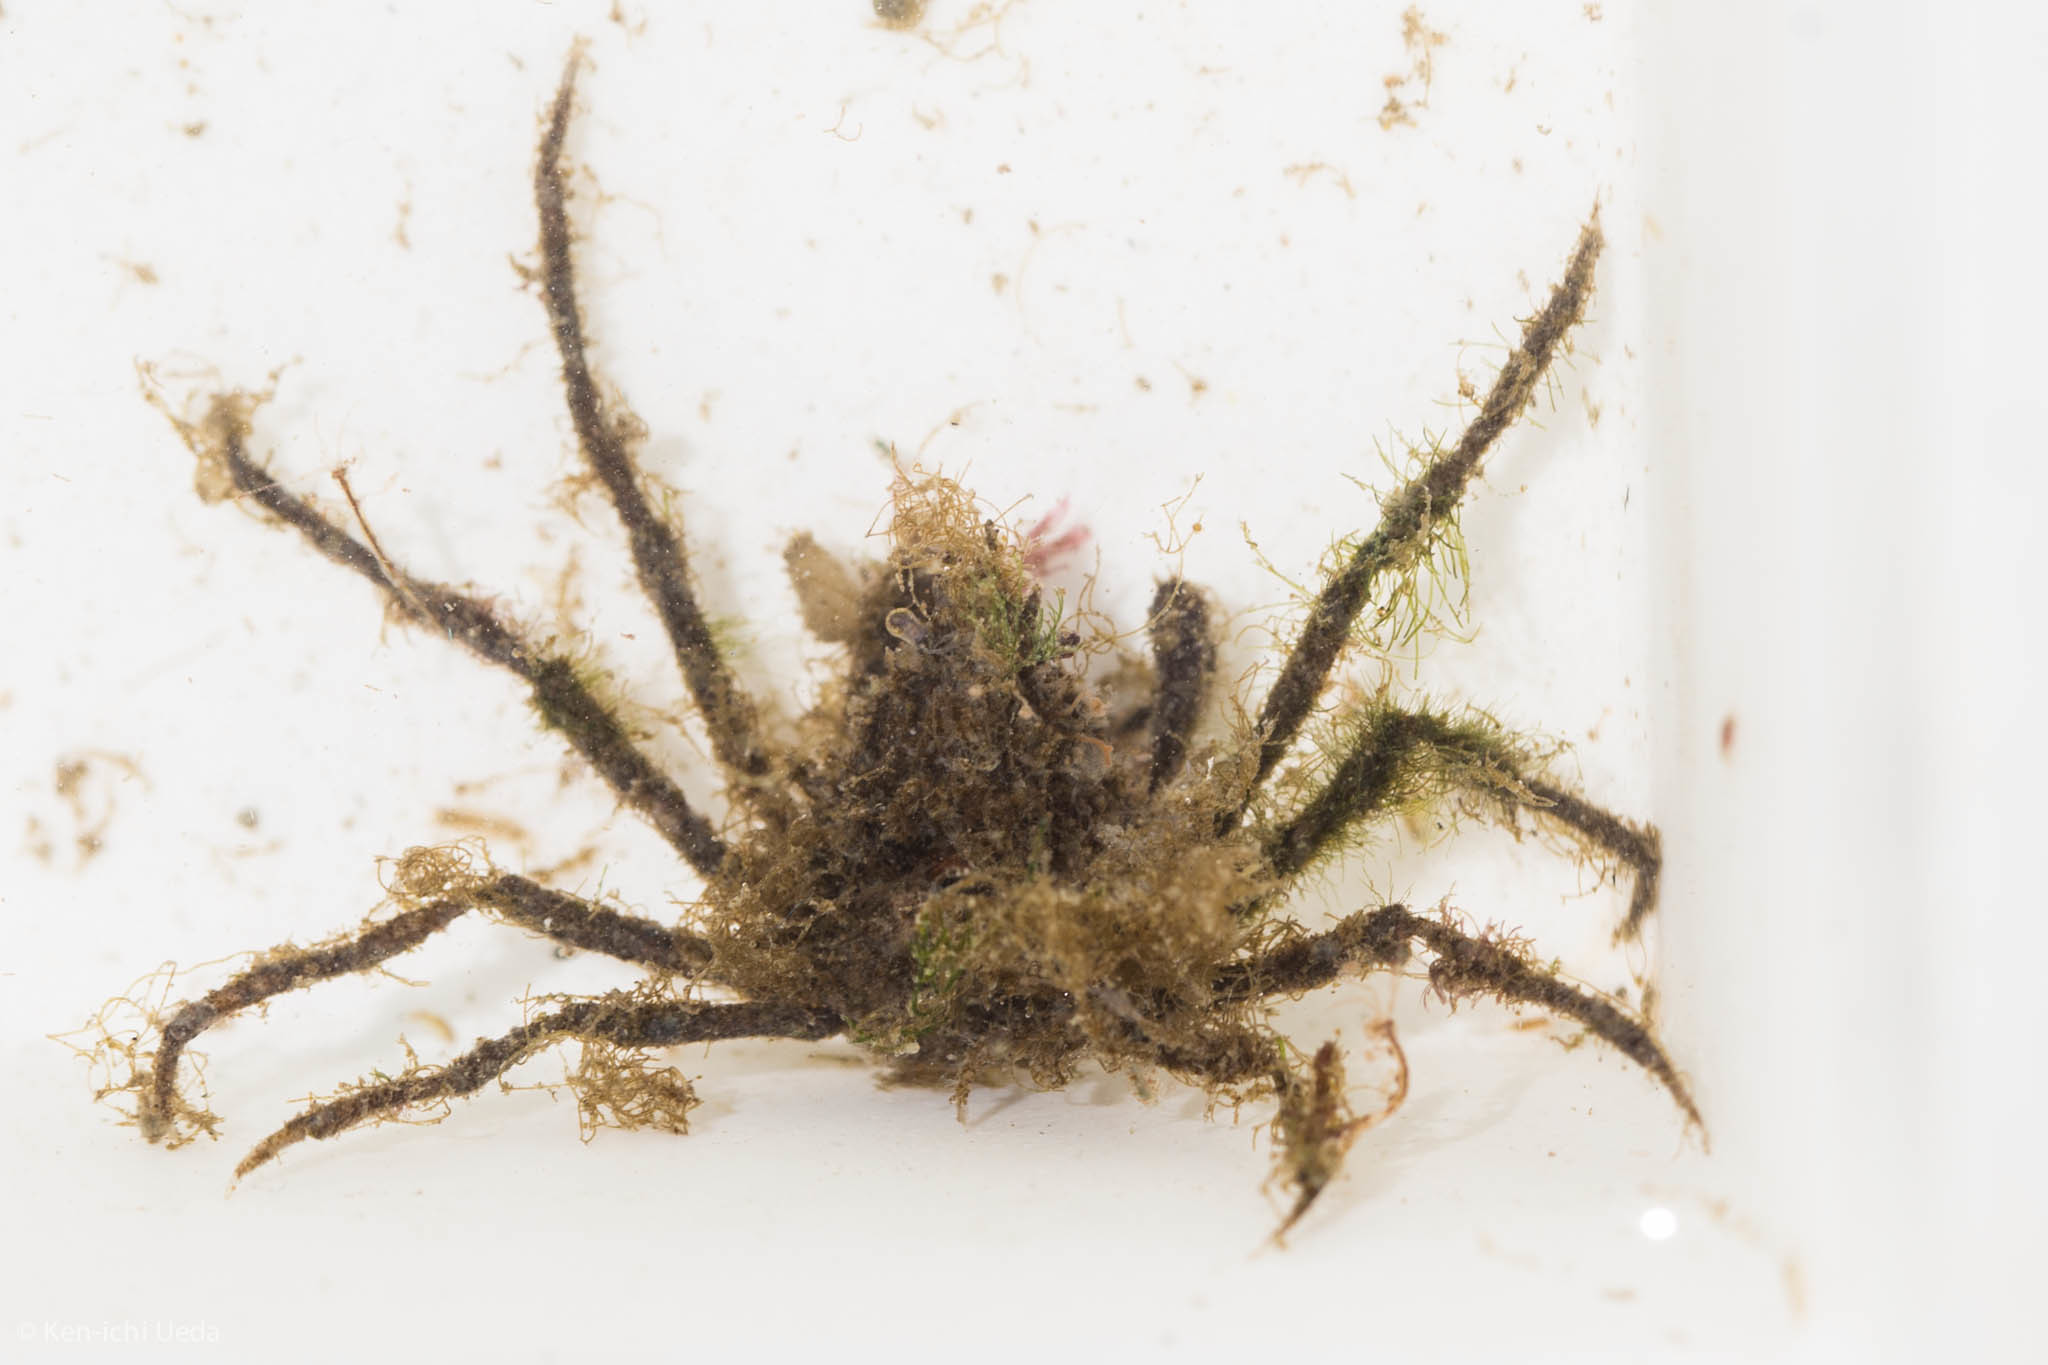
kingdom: Animalia
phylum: Arthropoda
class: Malacostraca
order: Decapoda
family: Inachoididae
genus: Pyromaia
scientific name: Pyromaia tuberculata
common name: Tuberculate pear crab
